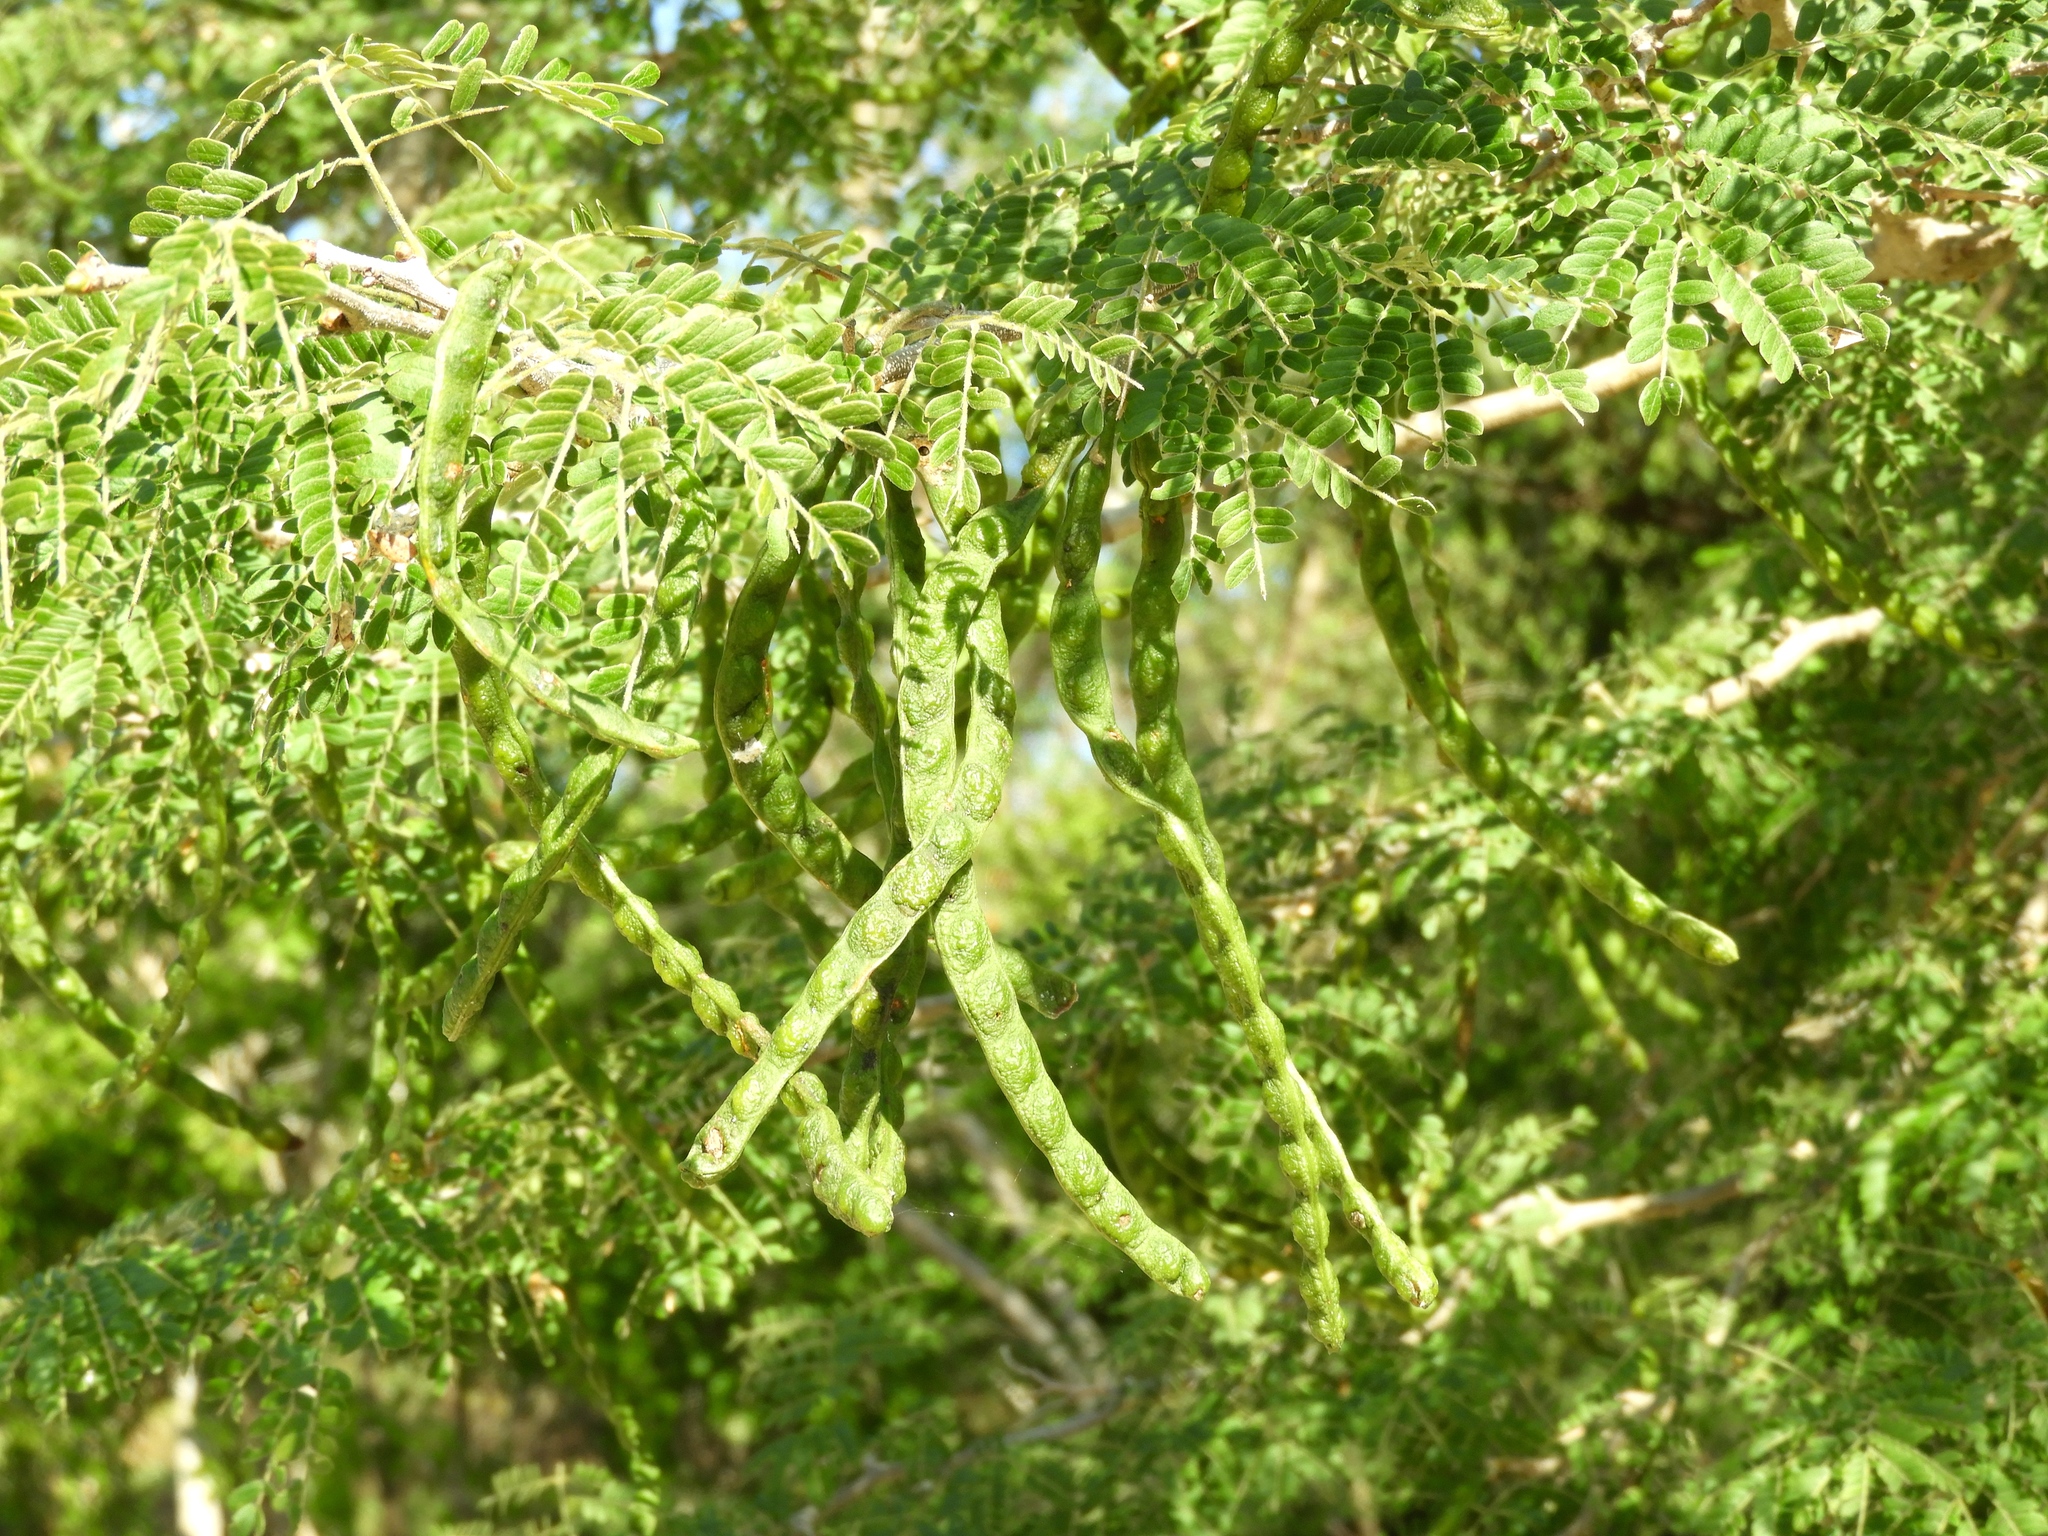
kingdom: Plantae
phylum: Tracheophyta
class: Magnoliopsida
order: Fabales
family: Fabaceae
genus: Chloroleucon
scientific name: Chloroleucon mangense
